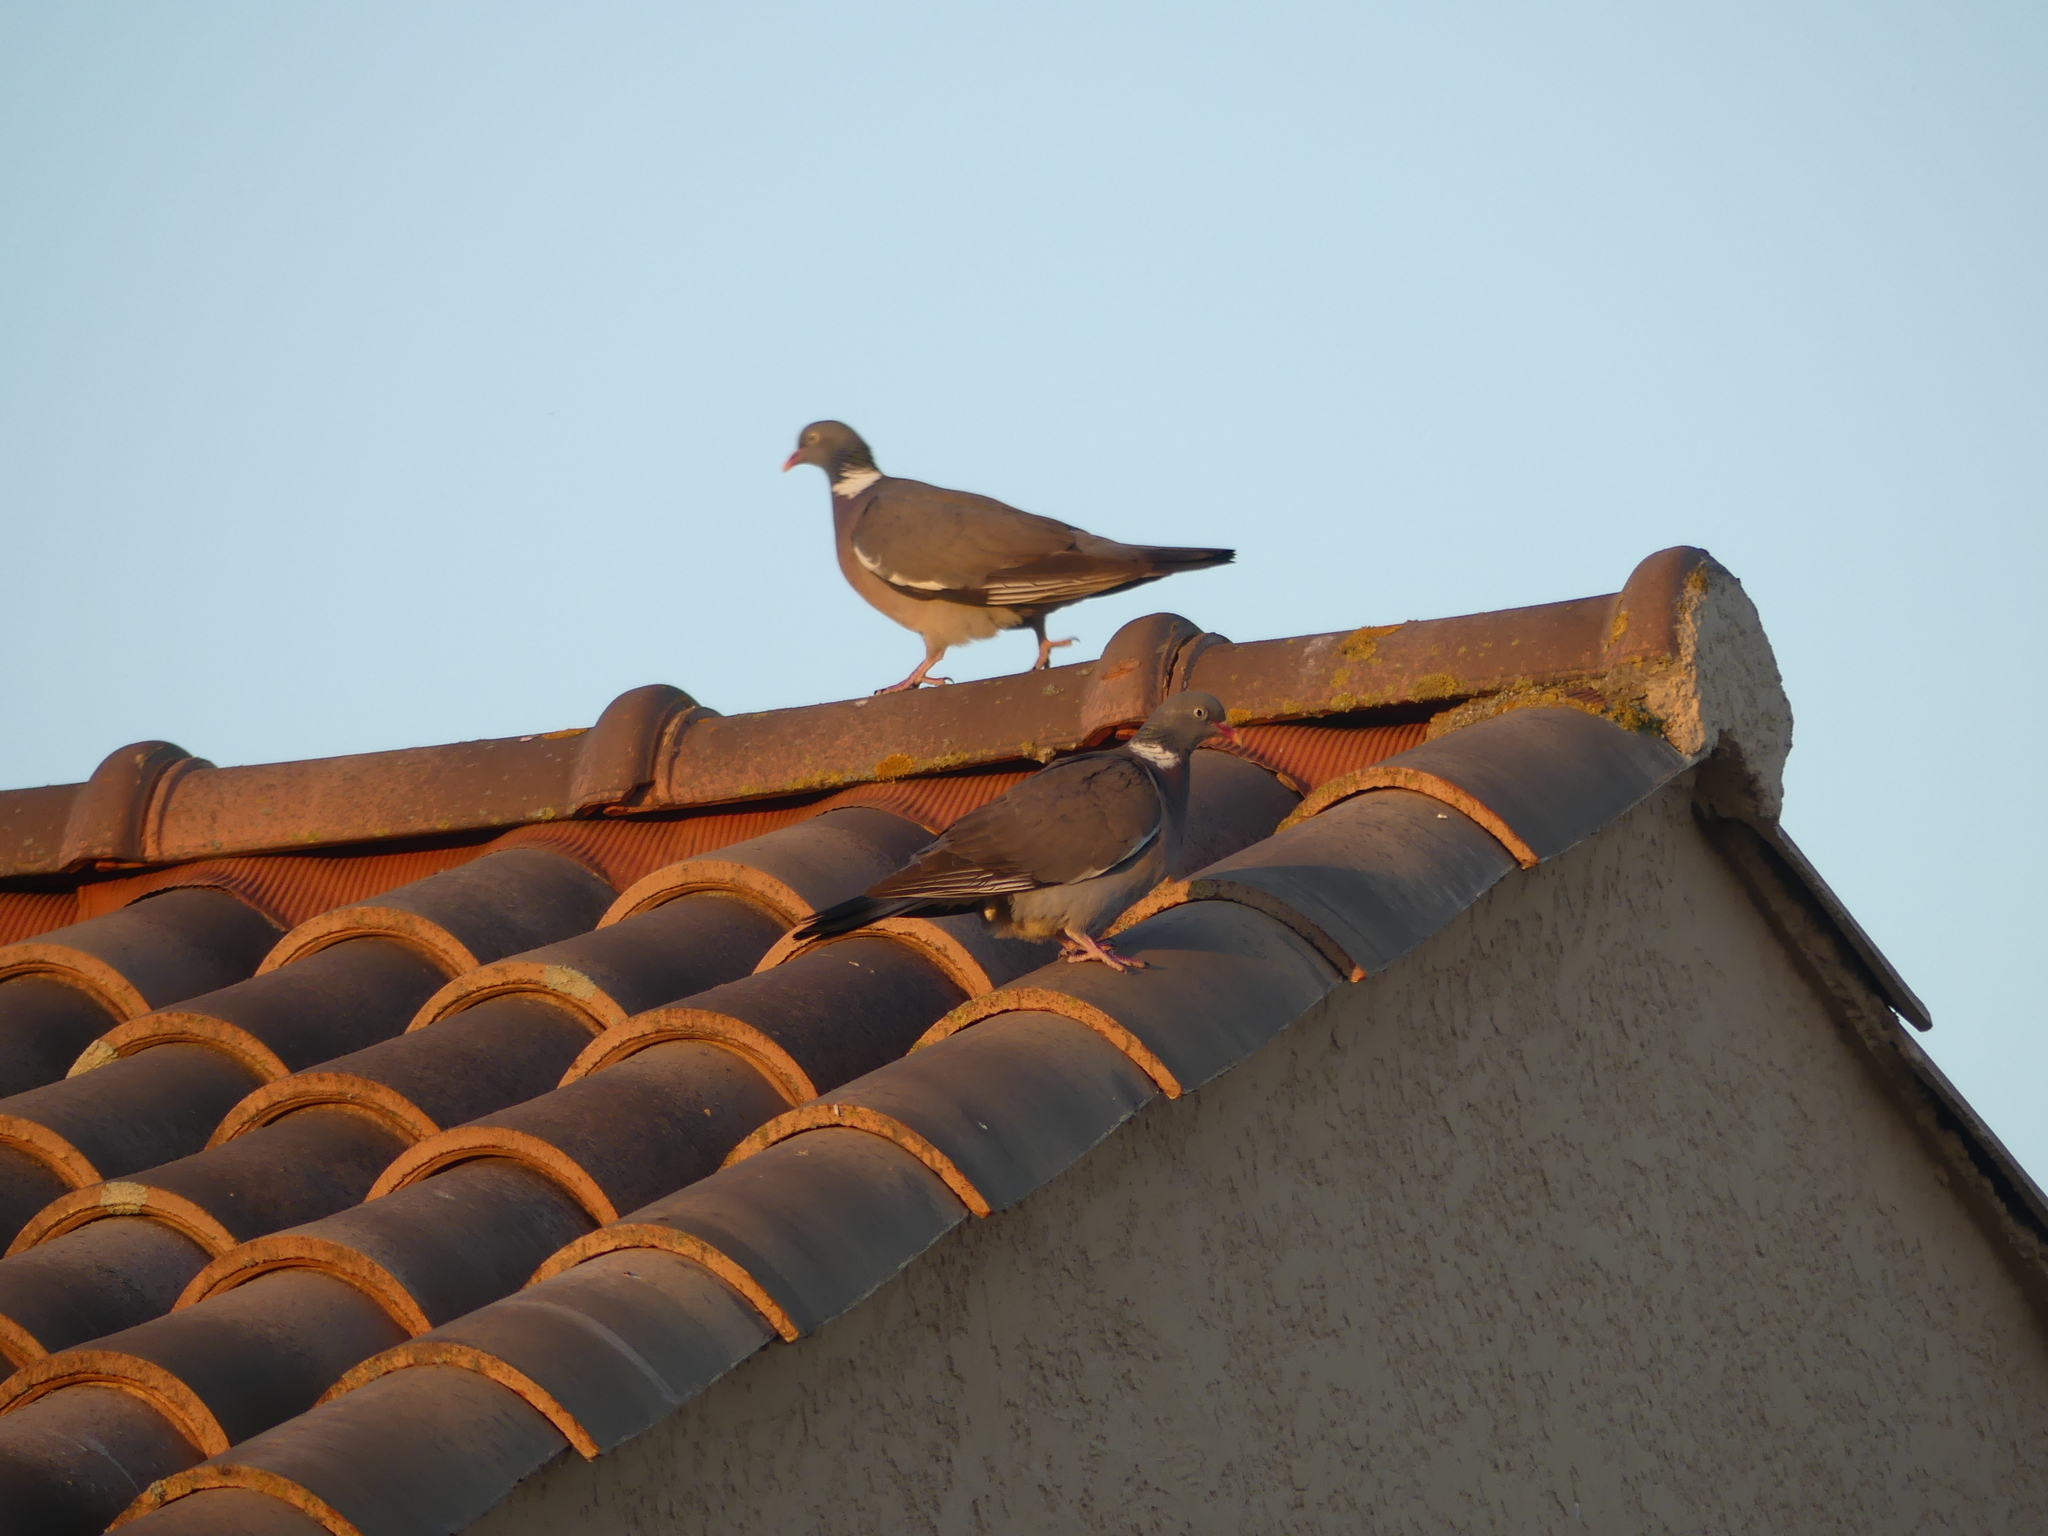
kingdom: Animalia
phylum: Chordata
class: Aves
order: Columbiformes
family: Columbidae
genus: Columba
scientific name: Columba palumbus
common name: Common wood pigeon
